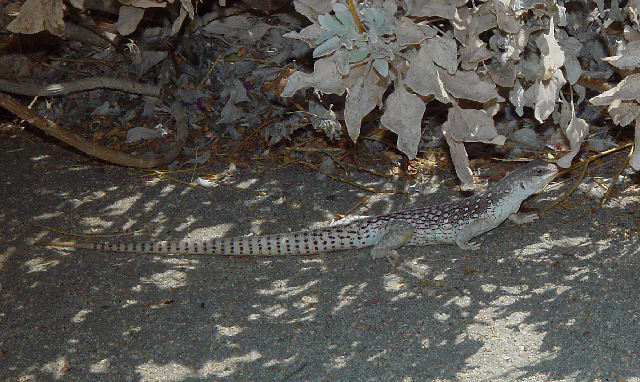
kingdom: Animalia
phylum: Chordata
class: Squamata
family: Iguanidae
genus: Dipsosaurus
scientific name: Dipsosaurus dorsalis
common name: Desert iguana
